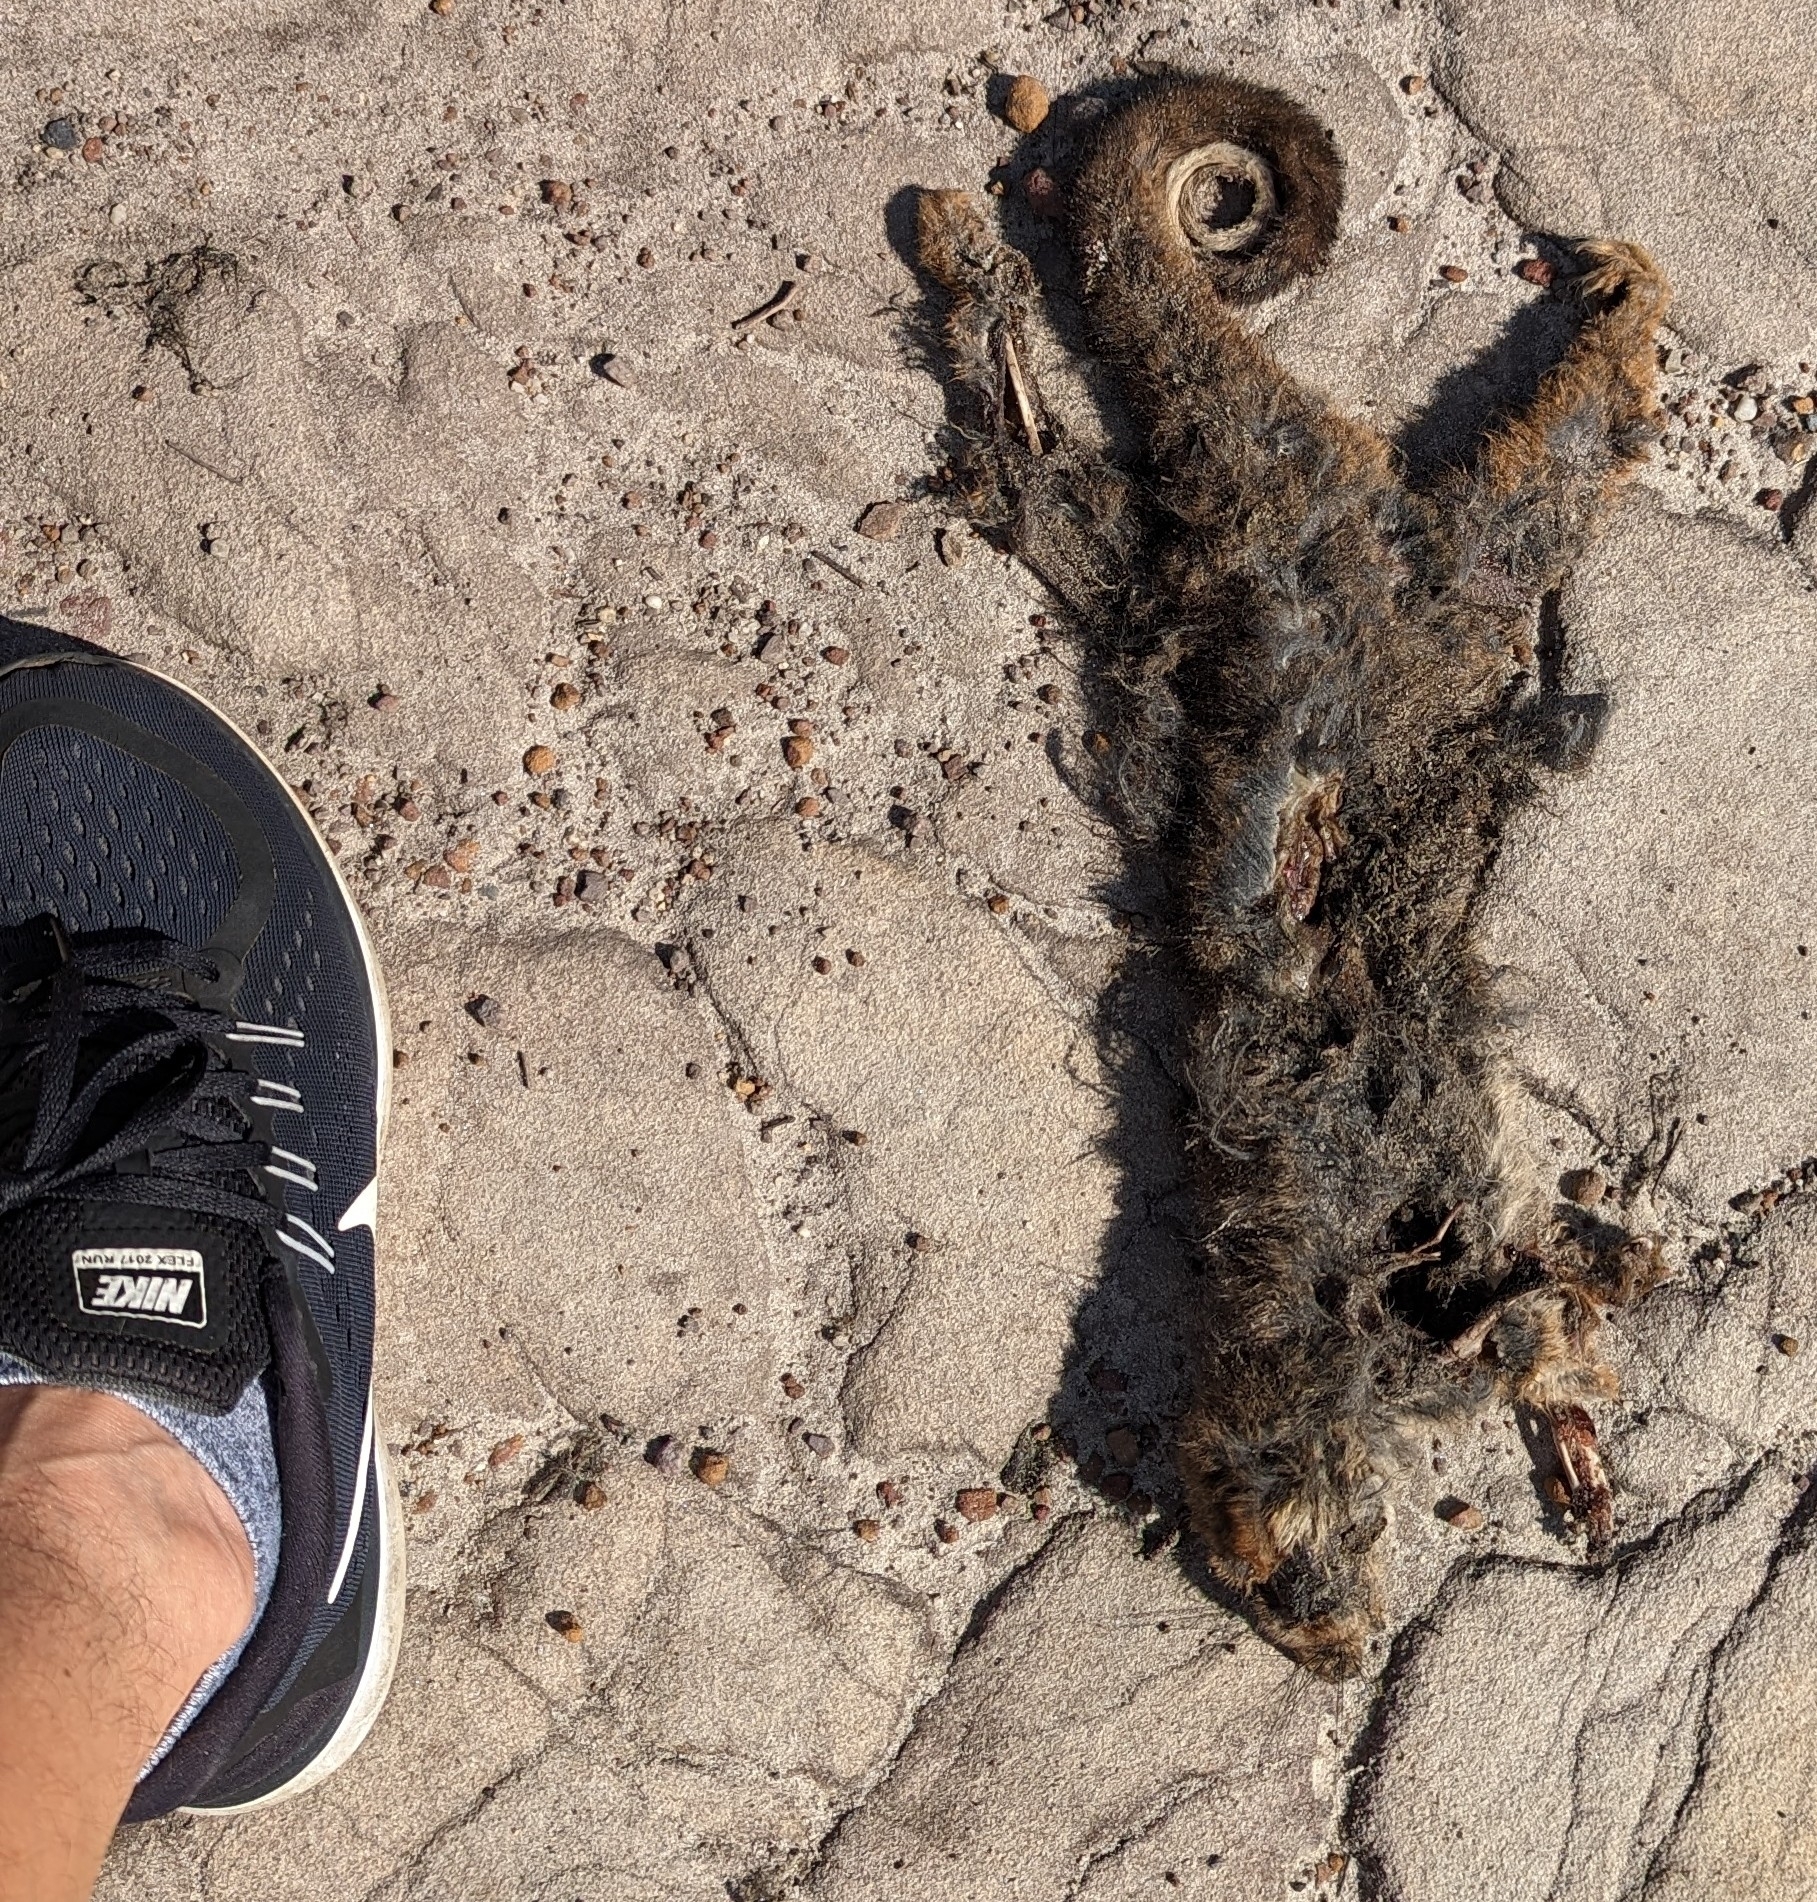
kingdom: Animalia
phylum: Chordata
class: Mammalia
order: Diprotodontia
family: Pseudocheiridae
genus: Pseudocheirus
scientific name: Pseudocheirus peregrinus
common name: Common ringtail possum
